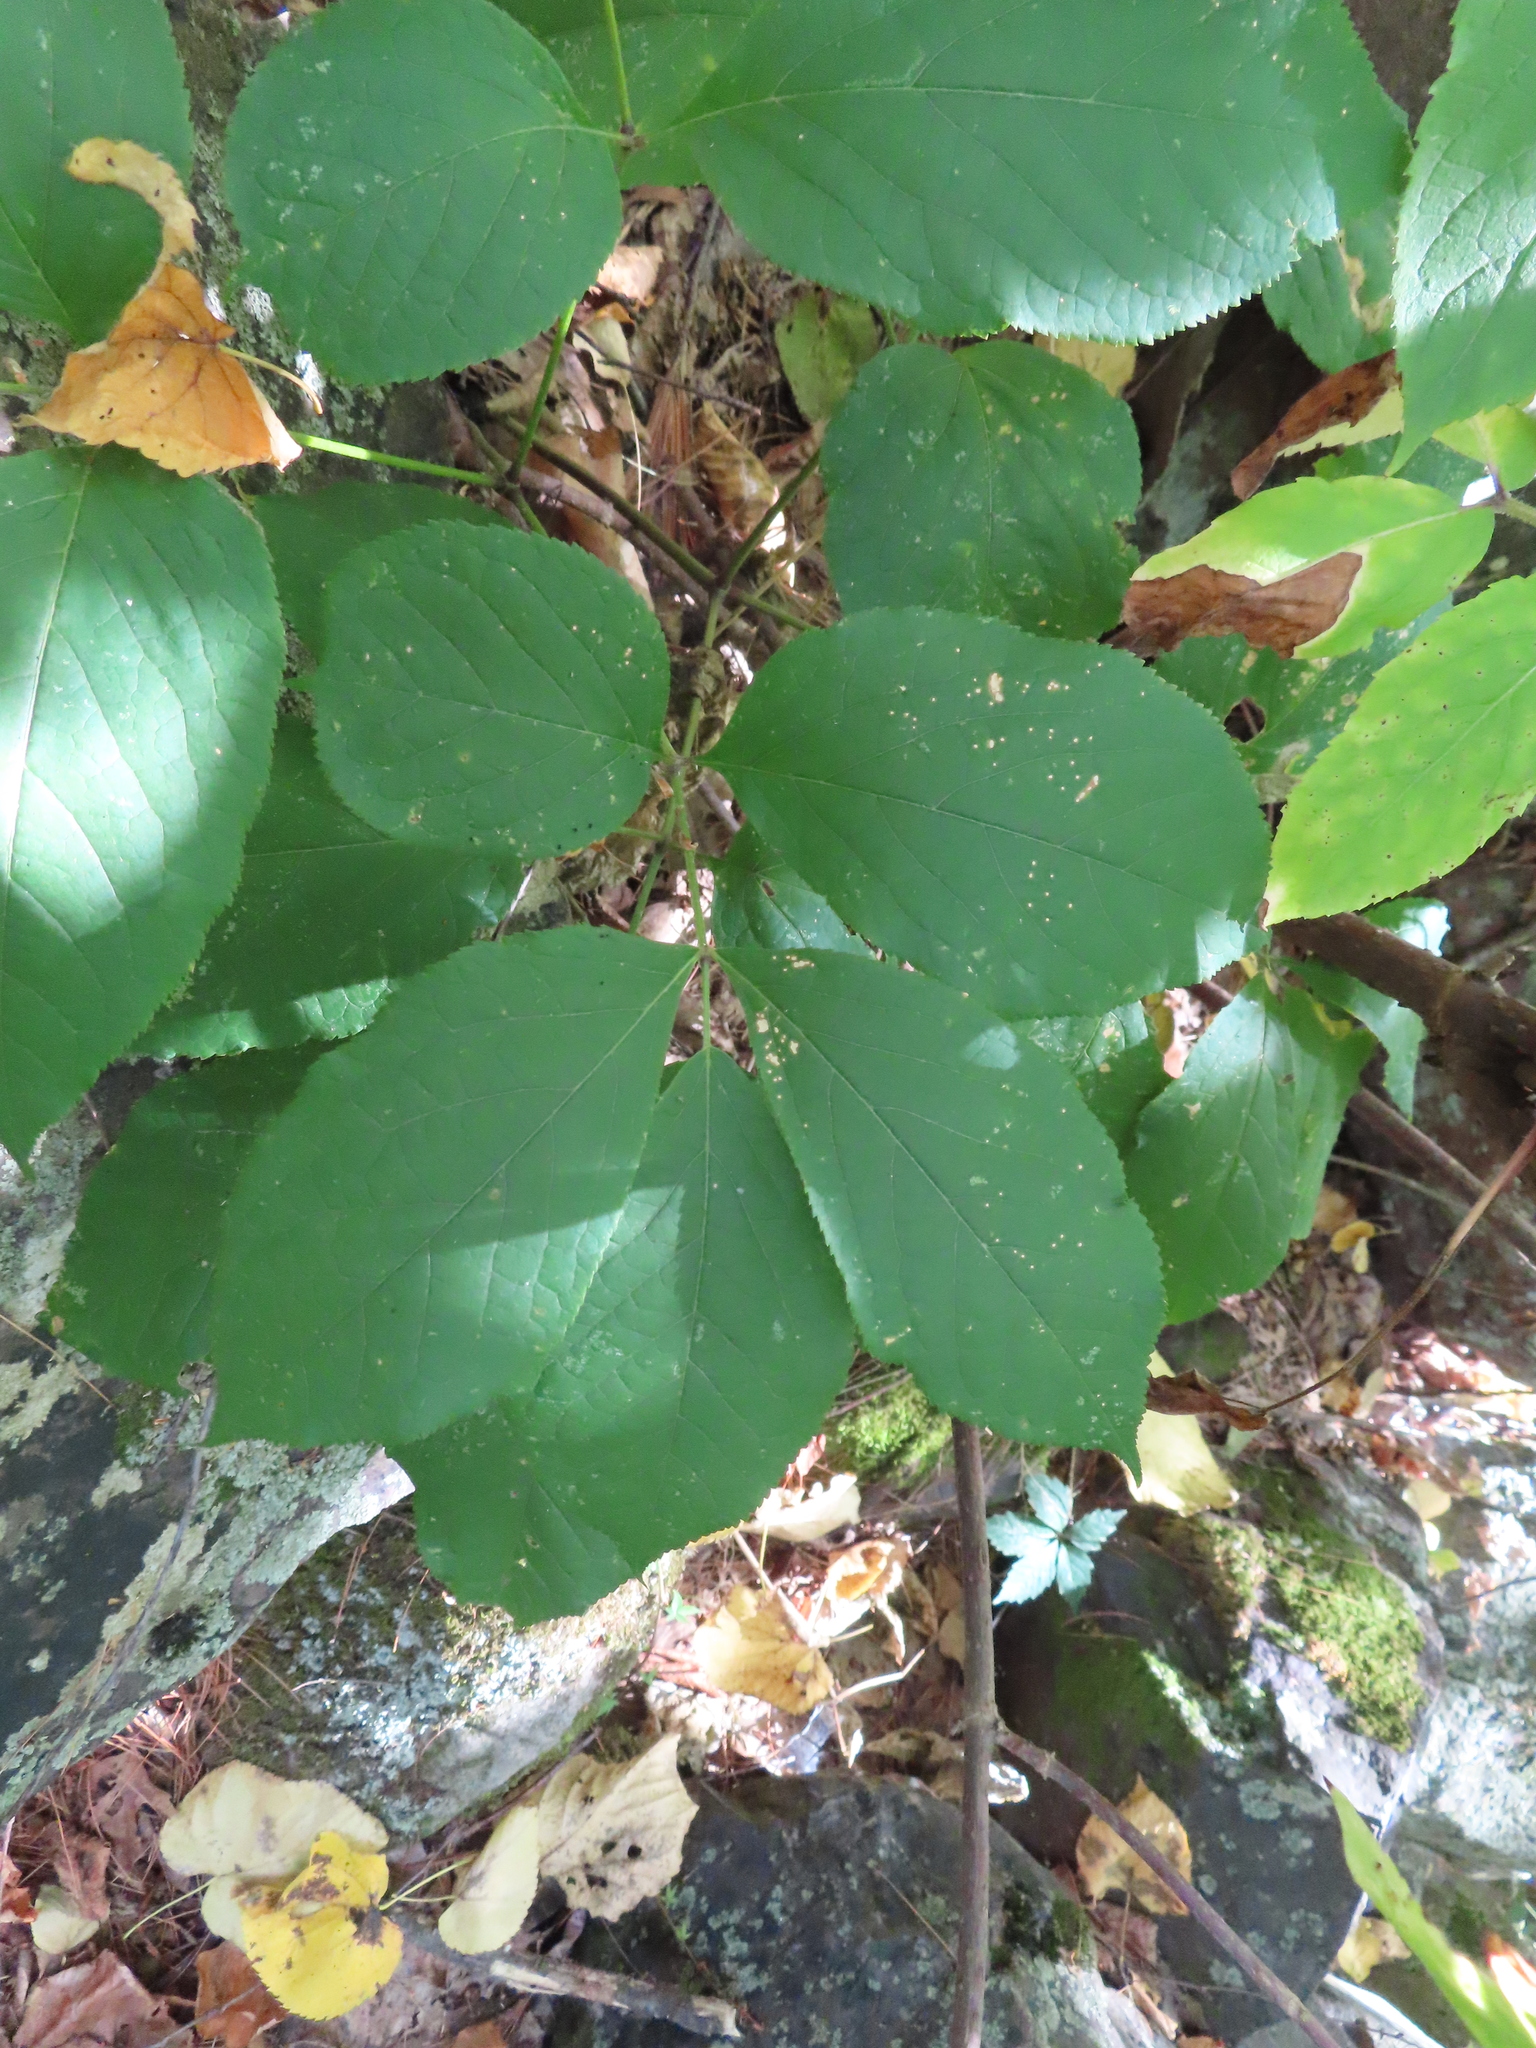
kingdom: Plantae
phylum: Tracheophyta
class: Magnoliopsida
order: Apiales
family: Araliaceae
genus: Aralia
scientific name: Aralia nudicaulis
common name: Wild sarsaparilla
